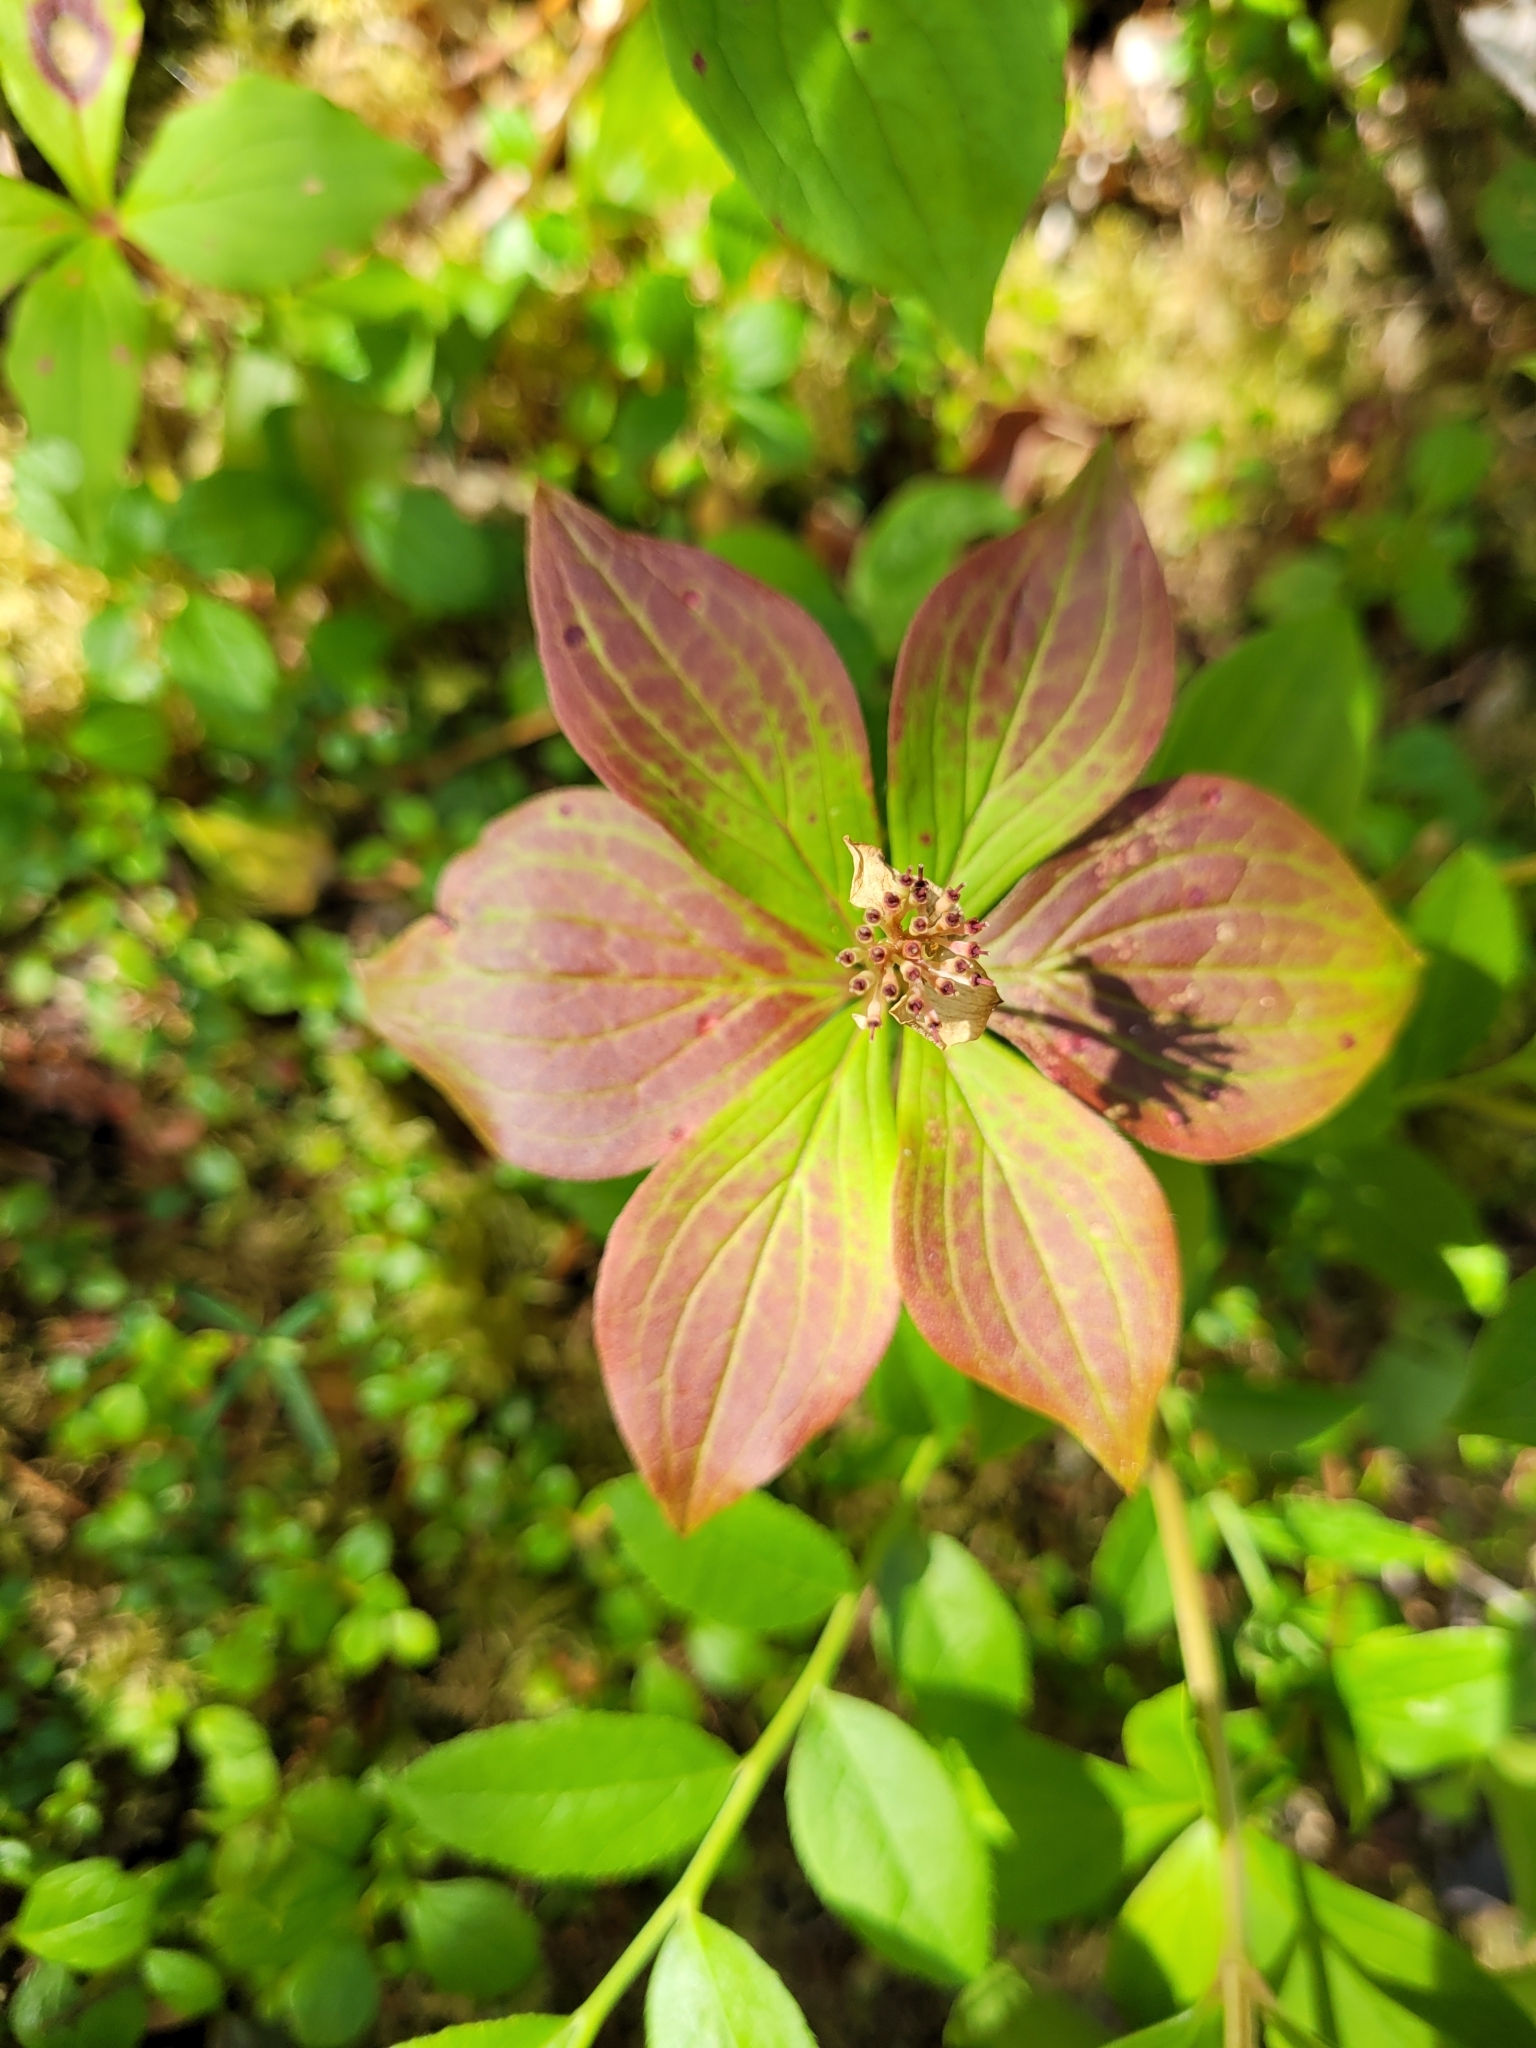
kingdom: Plantae
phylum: Tracheophyta
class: Magnoliopsida
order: Cornales
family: Cornaceae
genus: Cornus
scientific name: Cornus canadensis
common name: Creeping dogwood
